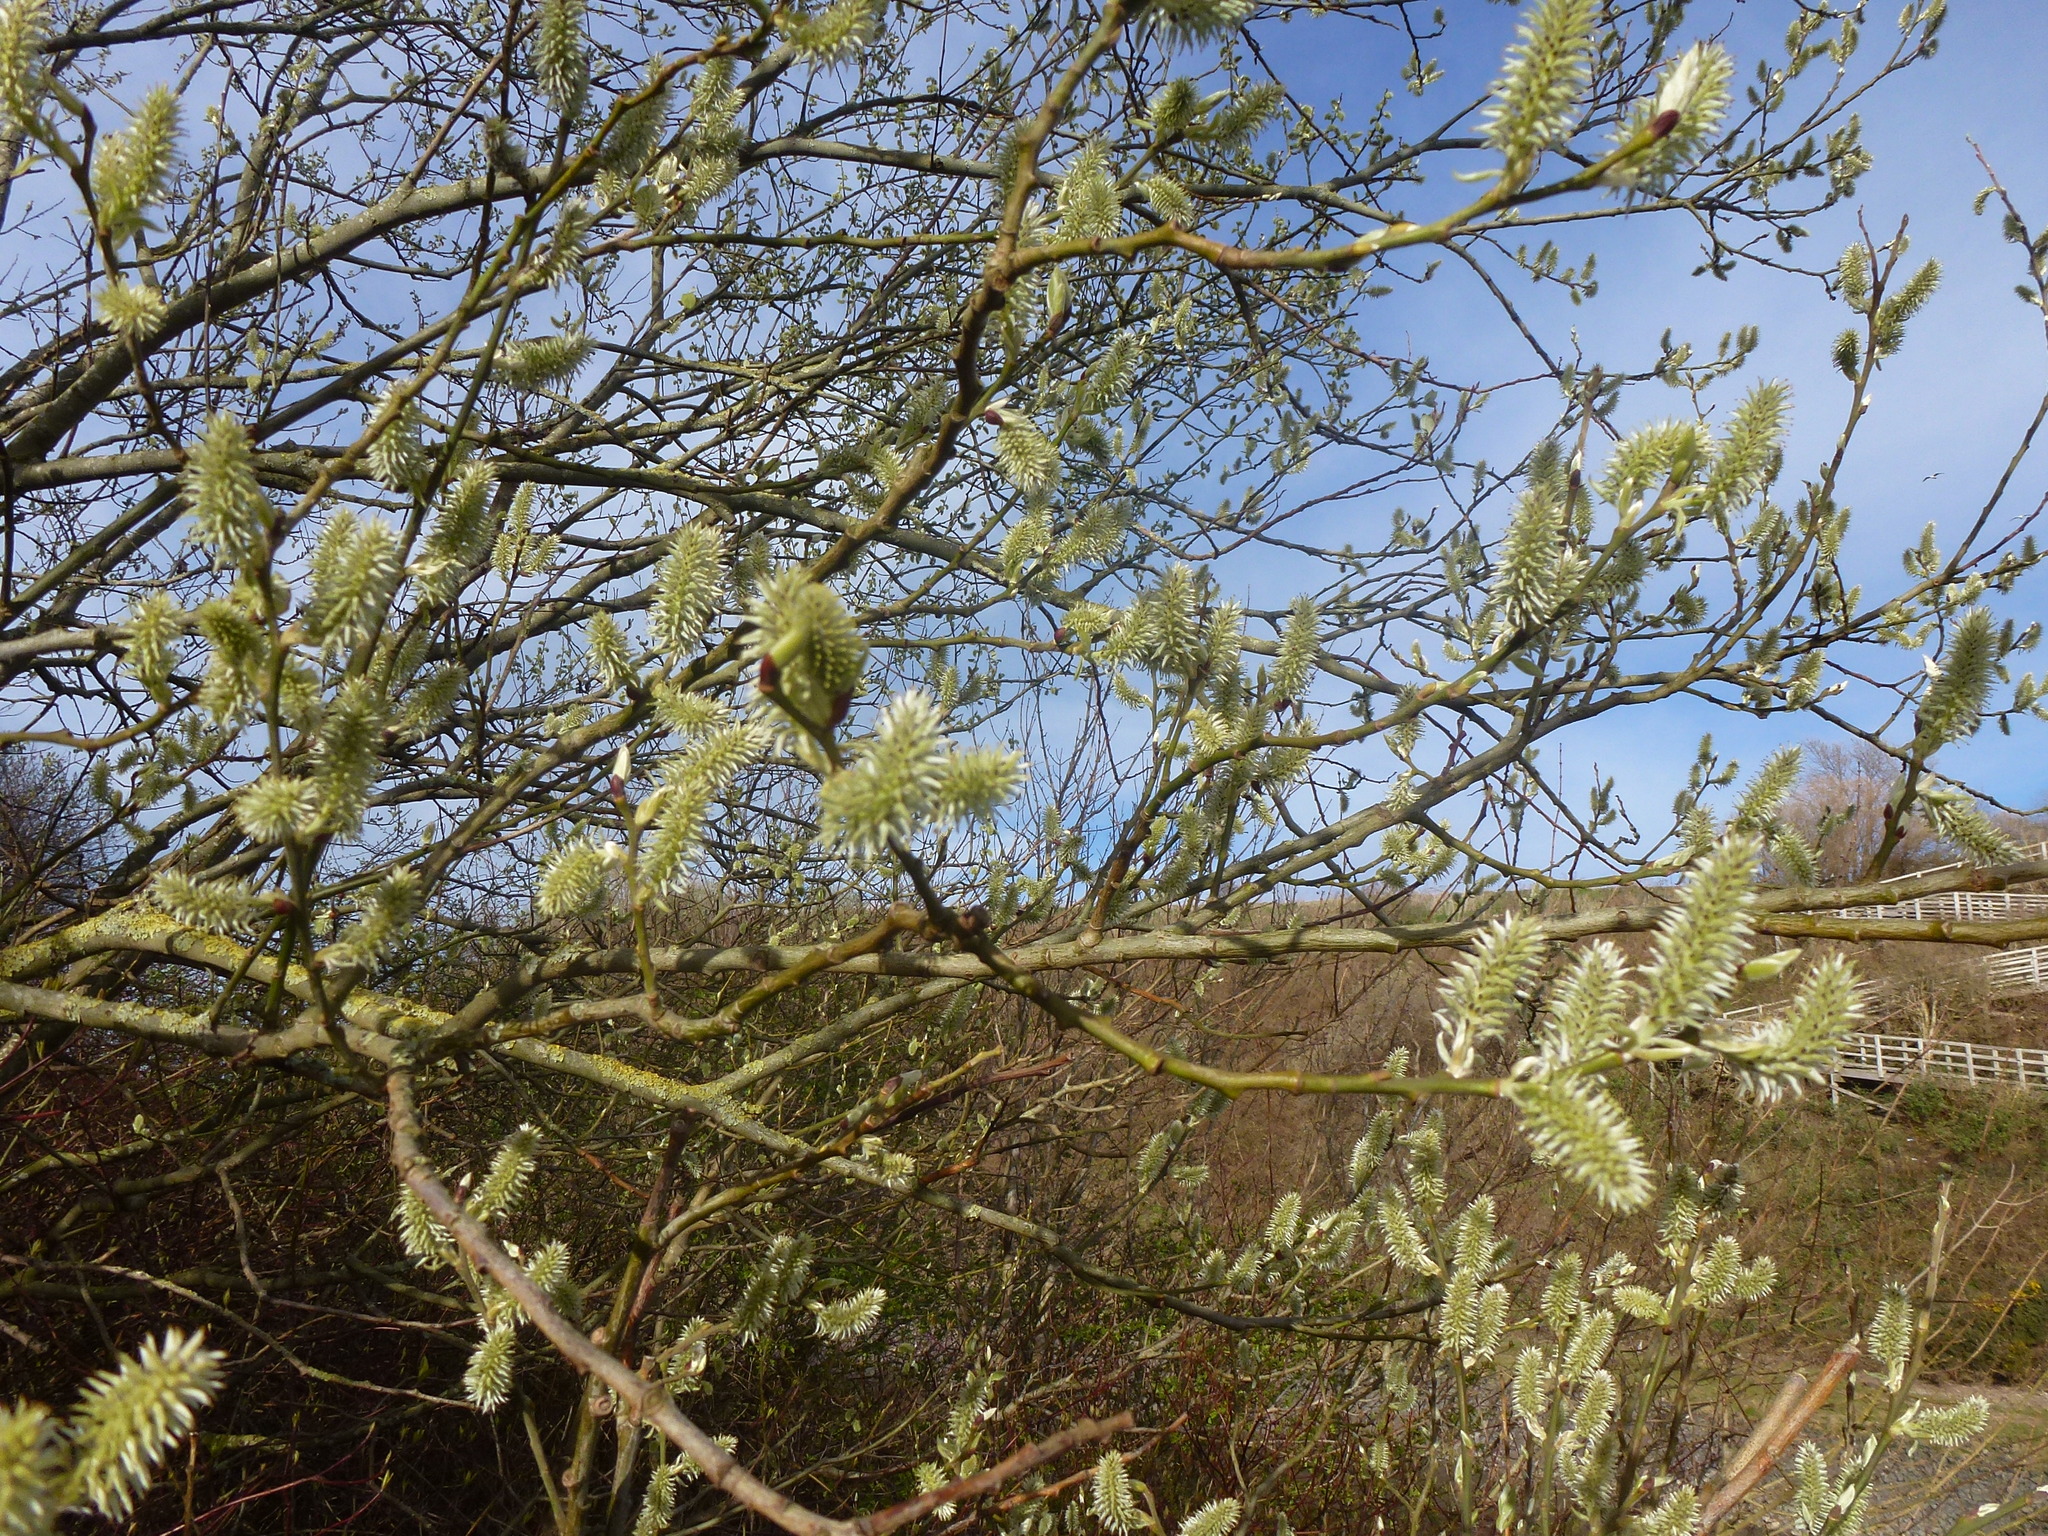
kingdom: Plantae
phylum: Tracheophyta
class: Magnoliopsida
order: Malpighiales
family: Salicaceae
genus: Salix
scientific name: Salix caprea
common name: Goat willow
